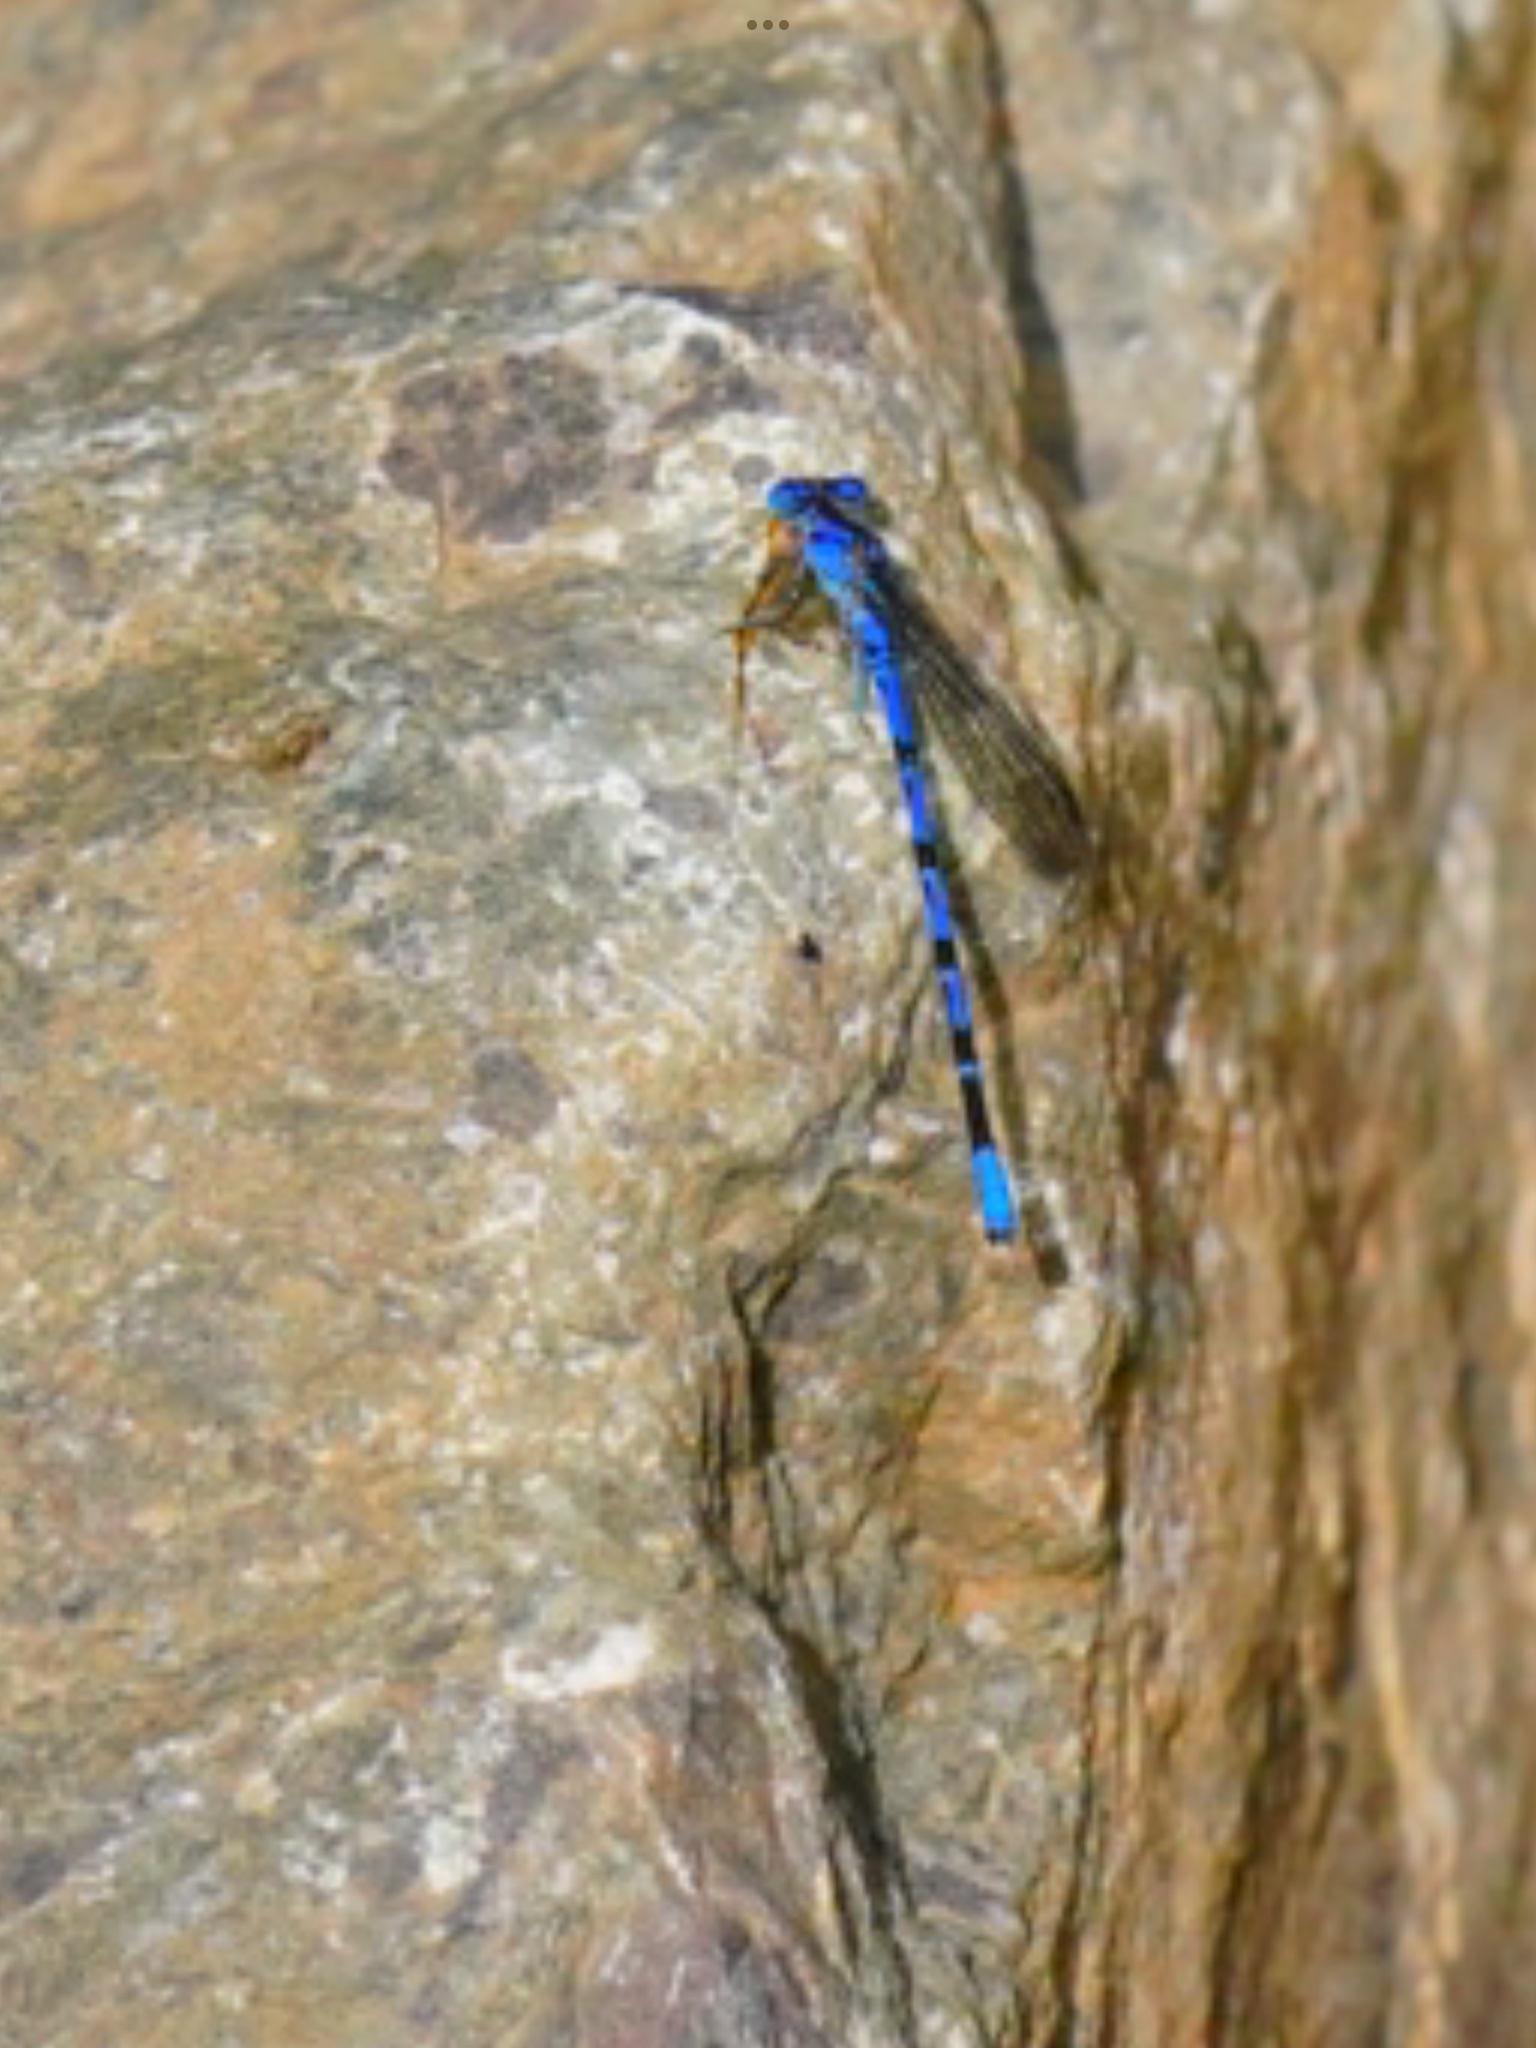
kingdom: Animalia
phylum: Arthropoda
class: Insecta
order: Odonata
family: Coenagrionidae
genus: Argia
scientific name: Argia vivida
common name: Vivid dancer
